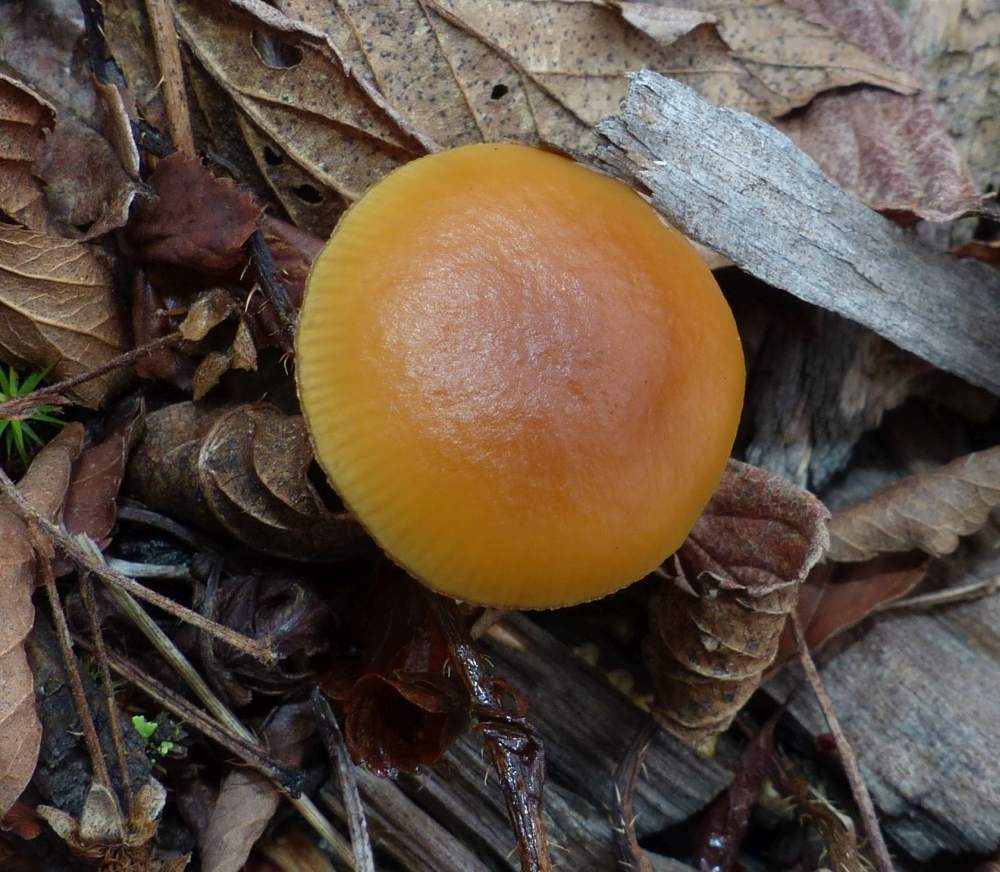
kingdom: Fungi
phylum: Basidiomycota
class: Agaricomycetes
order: Agaricales
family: Hymenogastraceae
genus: Galerina
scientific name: Galerina marginata
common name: Funeral bell
